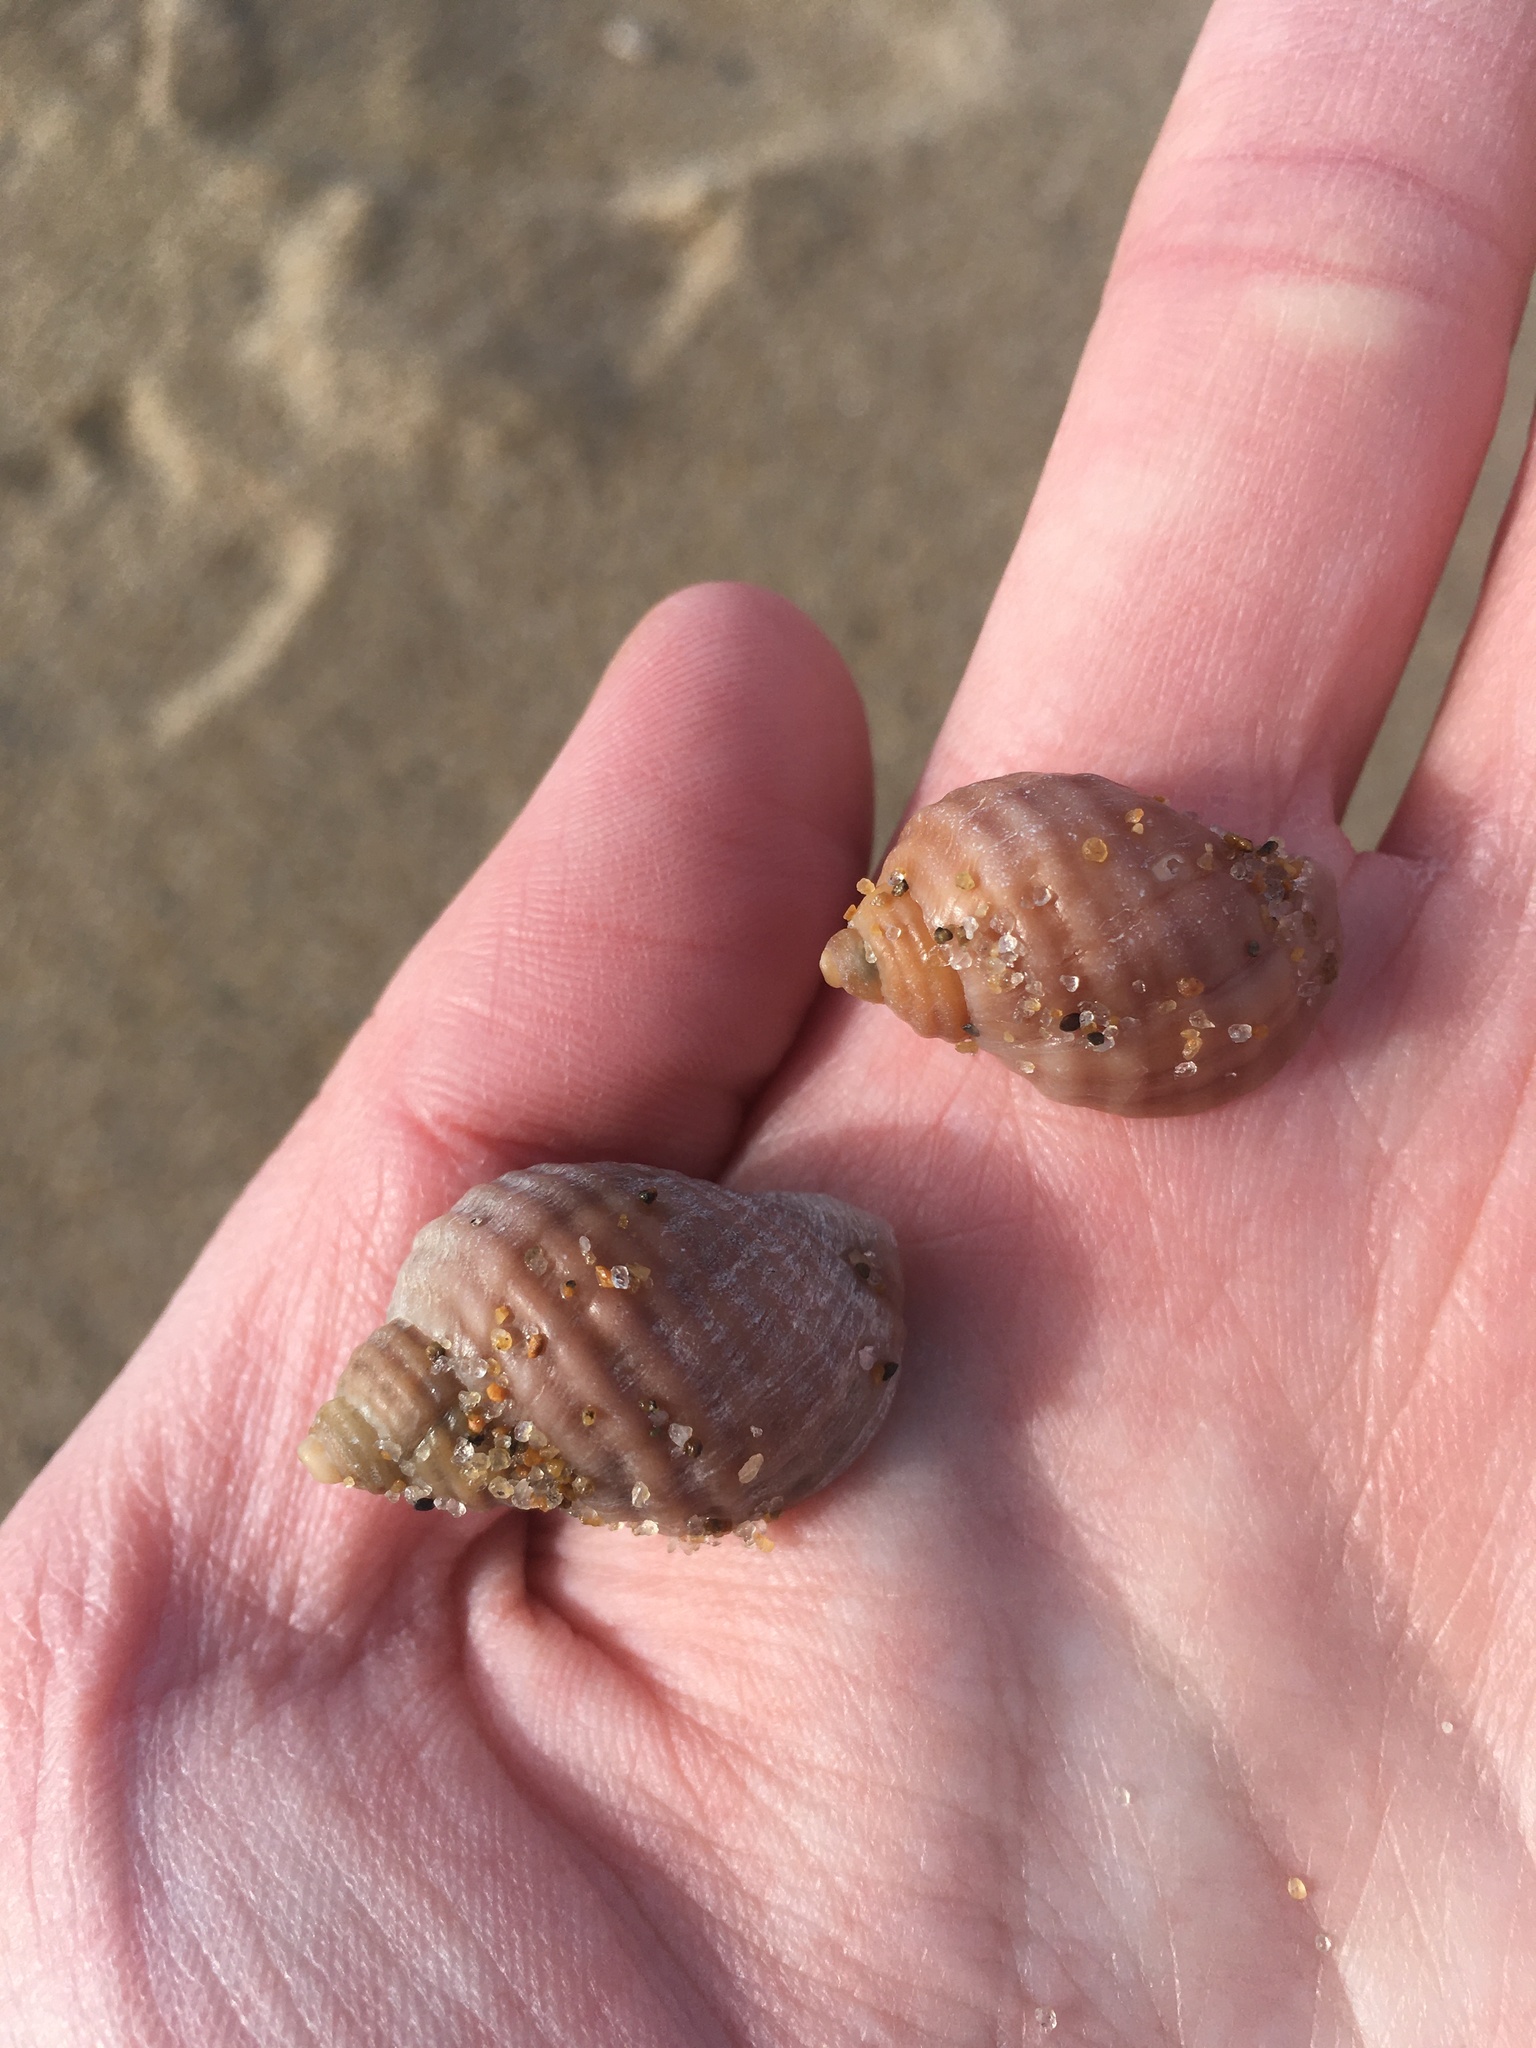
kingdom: Animalia
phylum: Mollusca
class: Gastropoda
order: Neogastropoda
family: Muricidae
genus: Nucella
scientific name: Nucella lapillus
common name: Dog whelk
